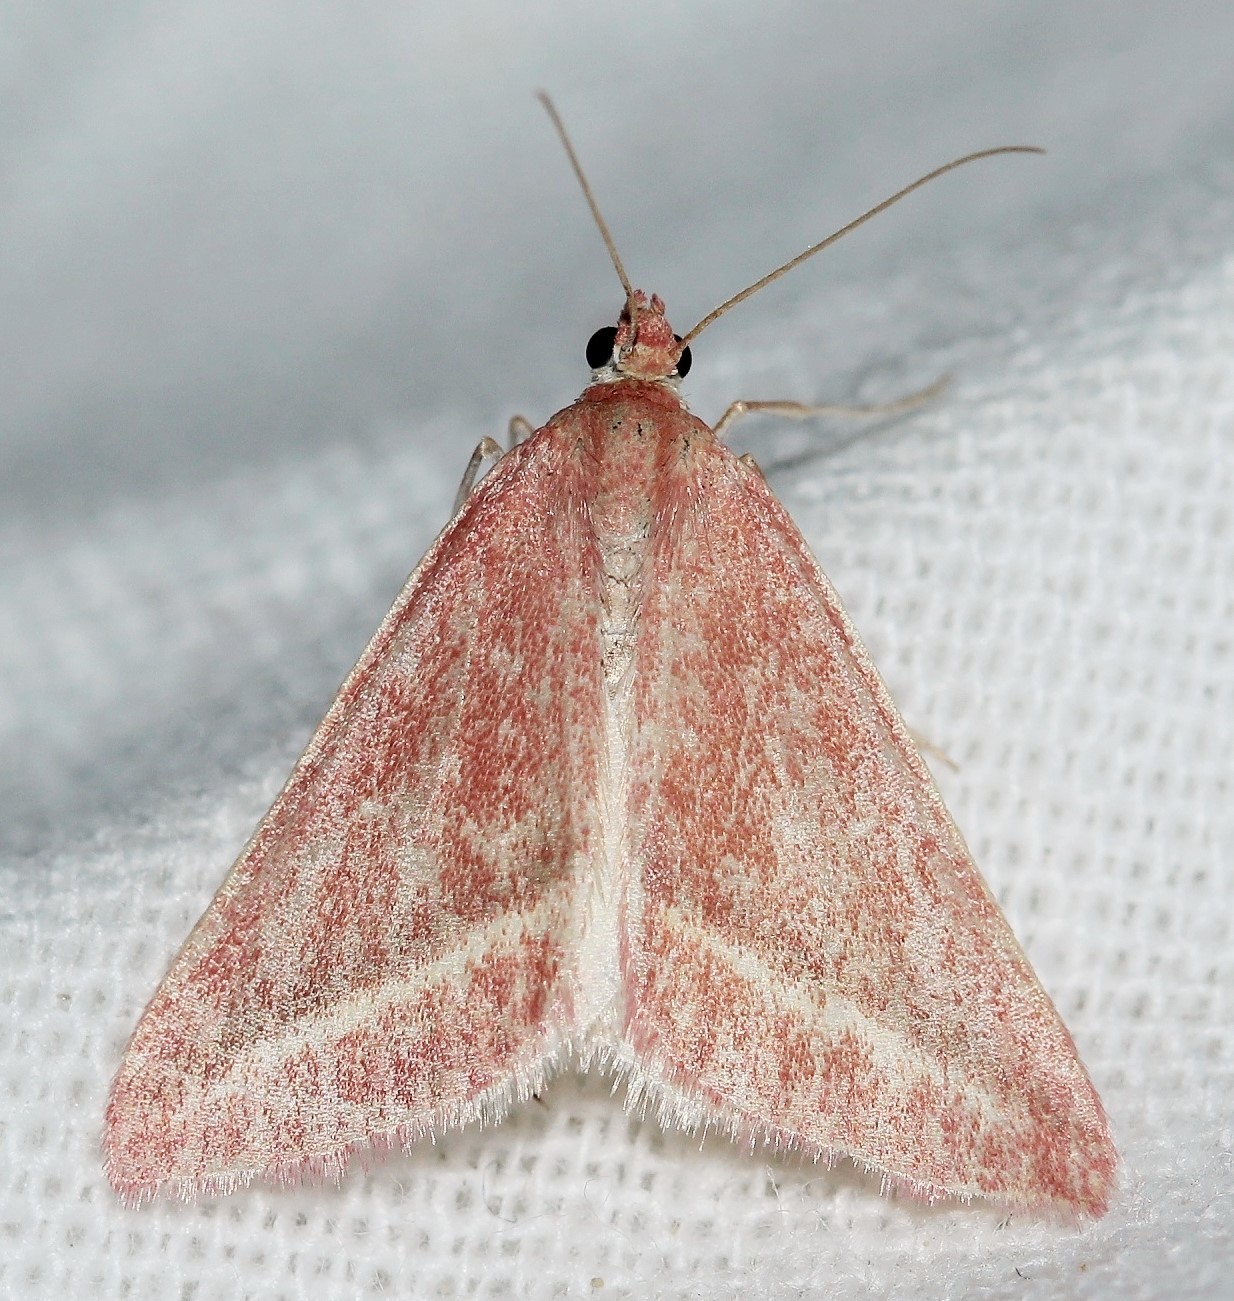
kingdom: Animalia
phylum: Arthropoda
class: Insecta
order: Lepidoptera
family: Geometridae
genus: Casilda
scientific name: Casilda consecraria
